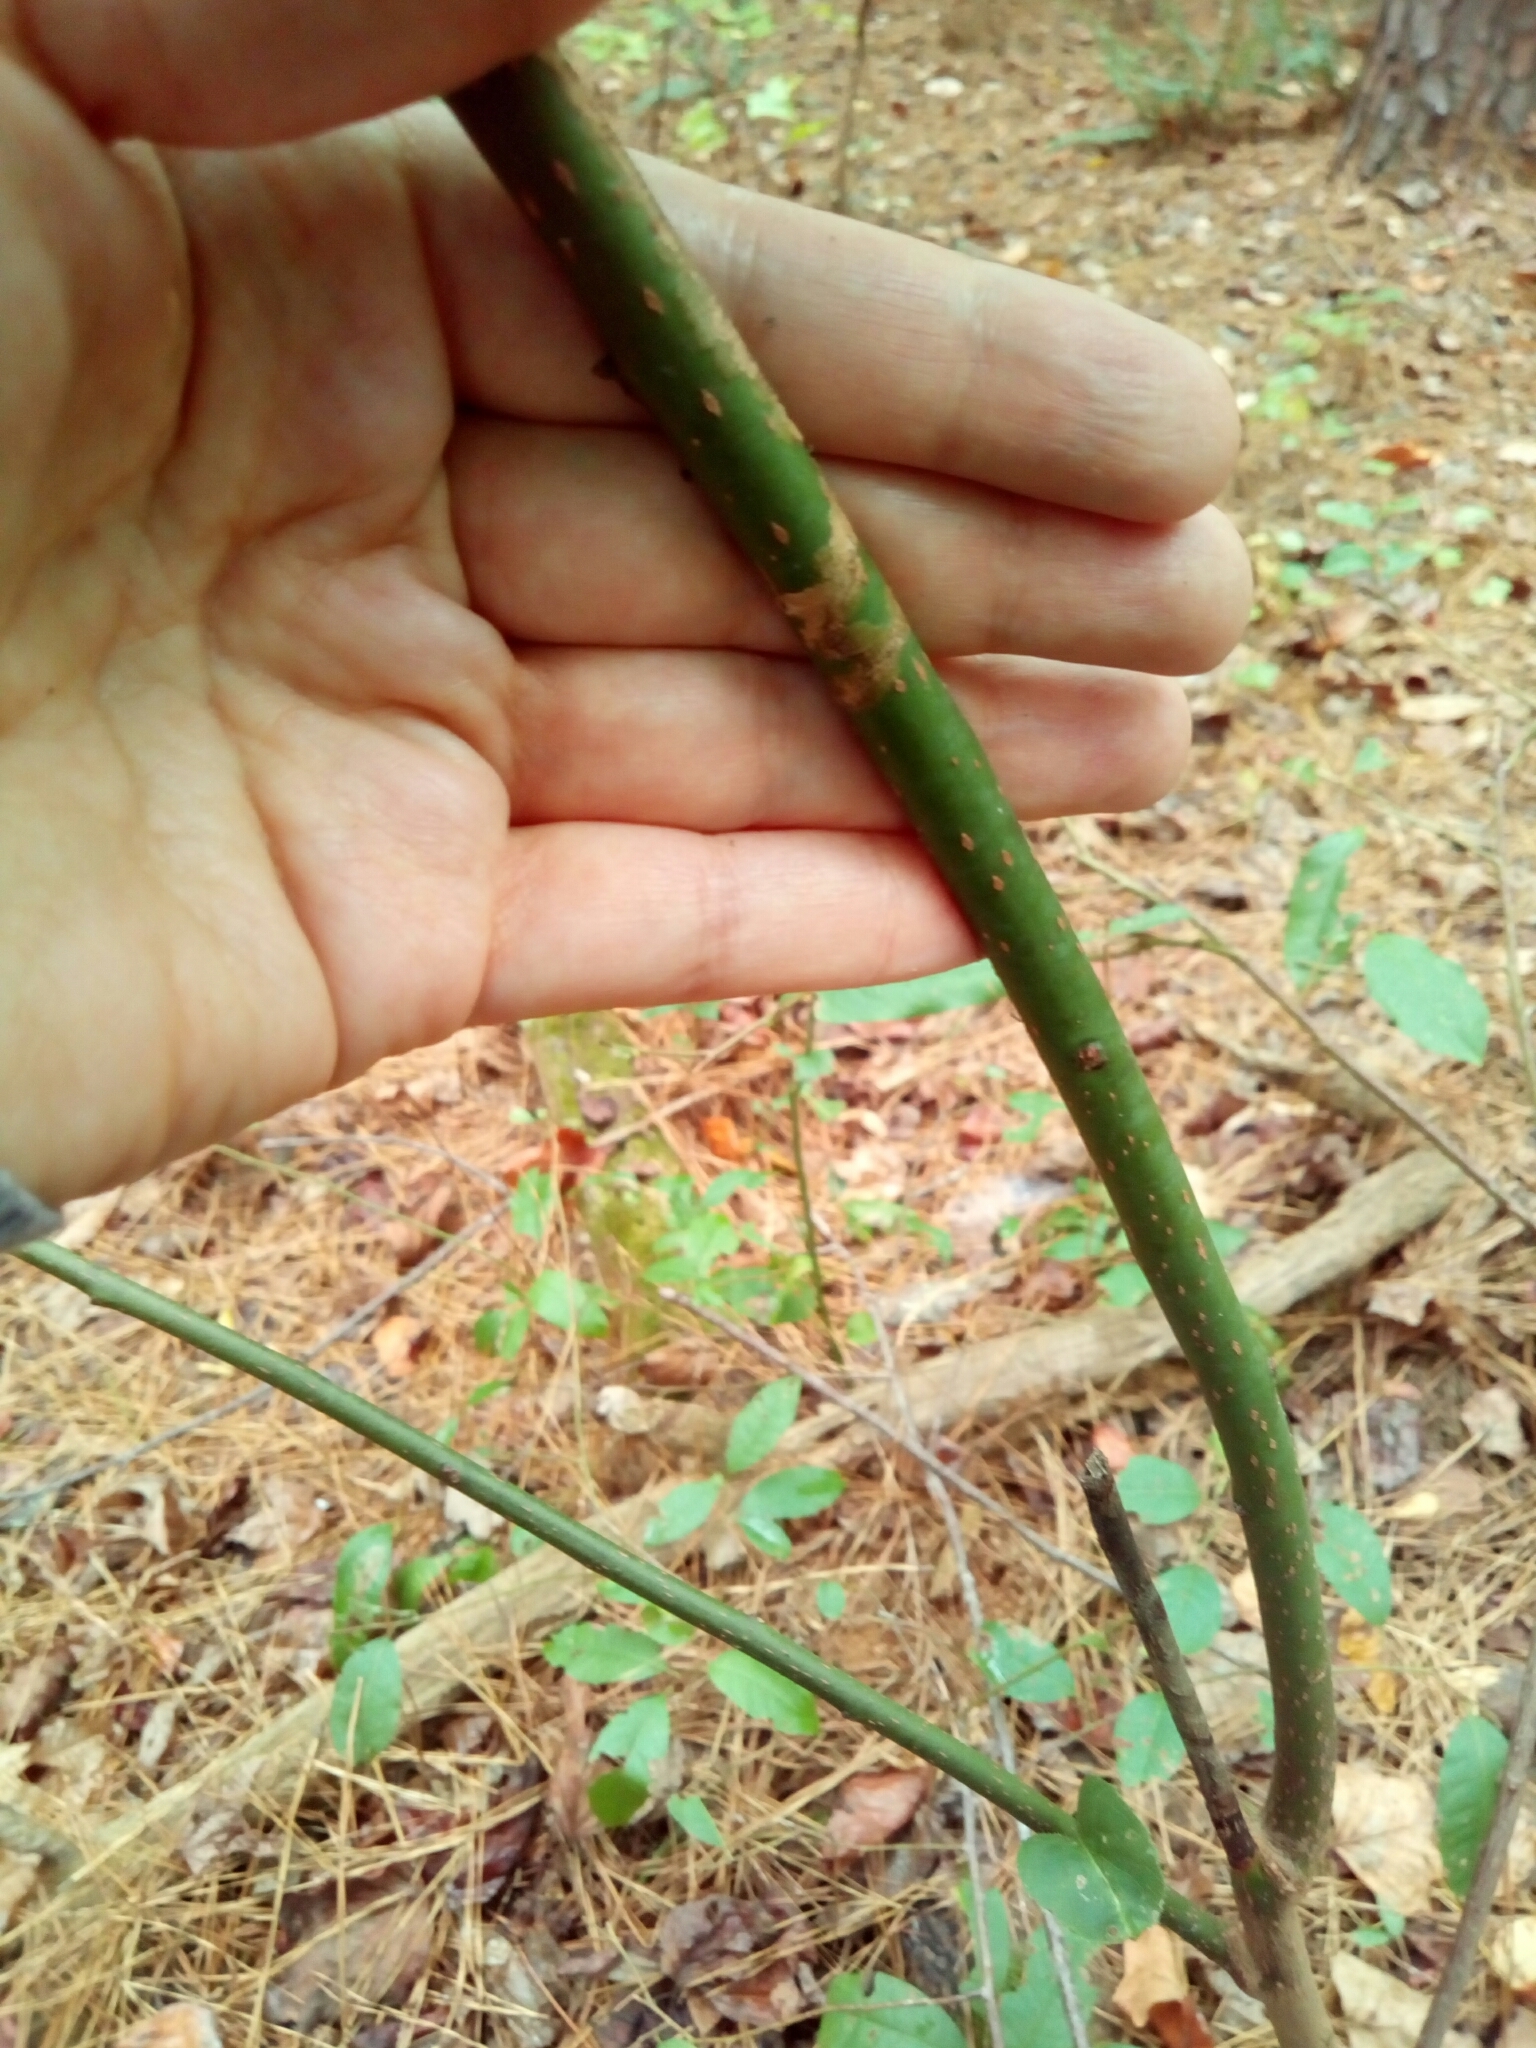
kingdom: Plantae
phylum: Tracheophyta
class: Magnoliopsida
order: Ericales
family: Ericaceae
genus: Oxydendrum
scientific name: Oxydendrum arboreum
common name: Sourwood
